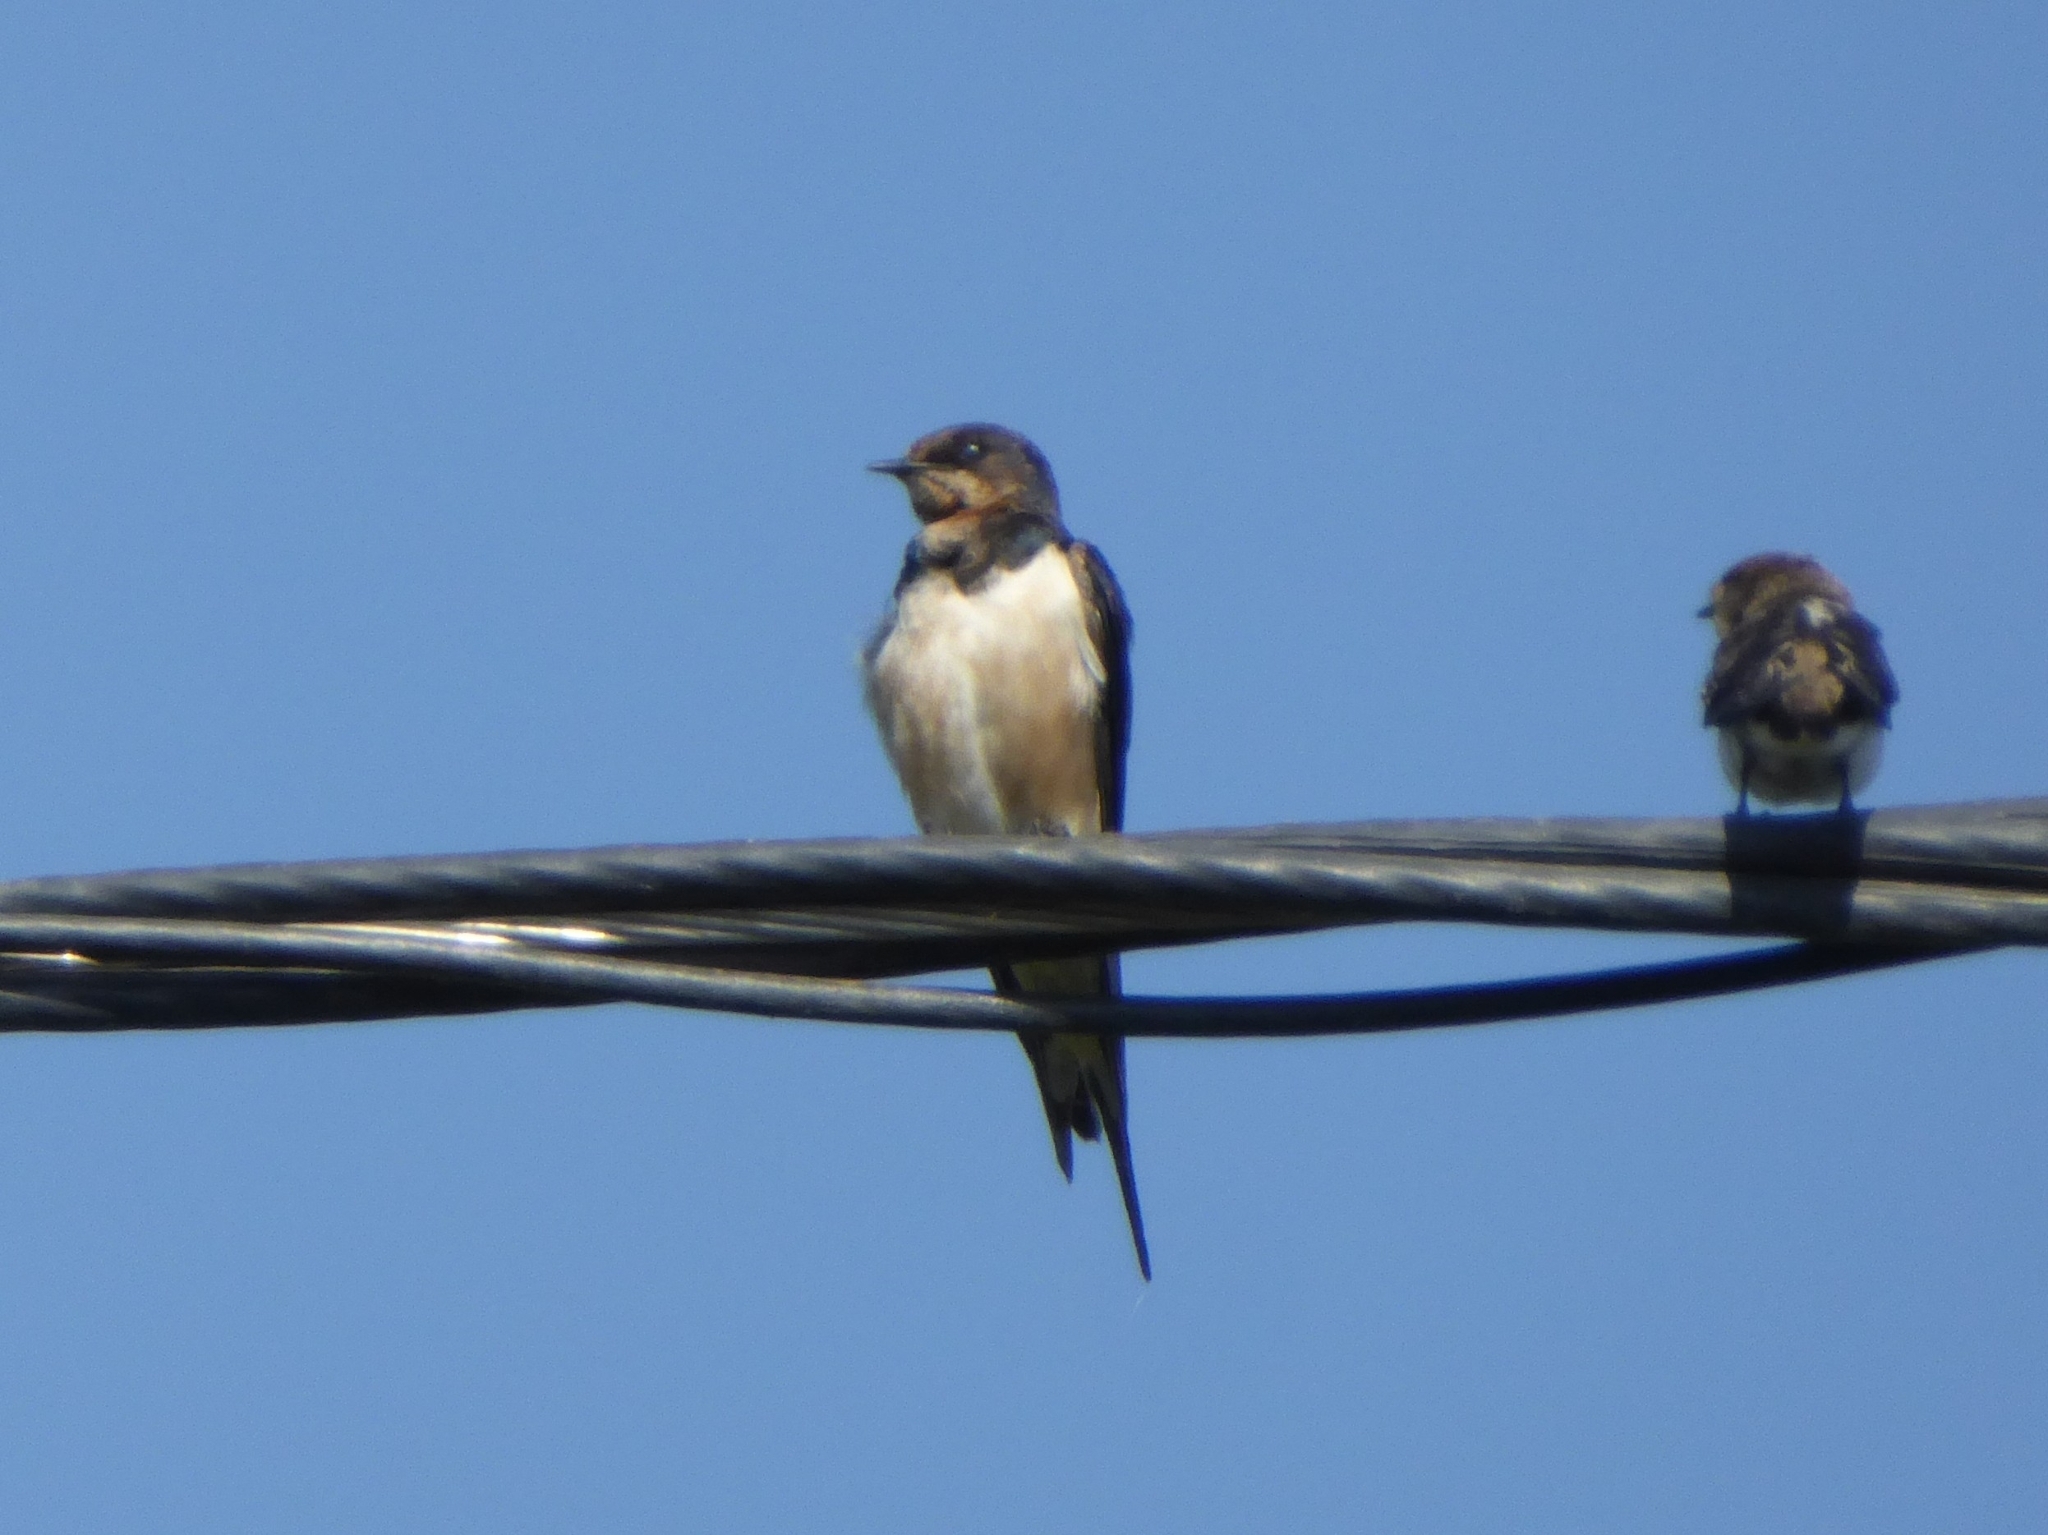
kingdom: Animalia
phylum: Chordata
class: Aves
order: Passeriformes
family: Hirundinidae
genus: Hirundo
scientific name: Hirundo rustica
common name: Barn swallow
